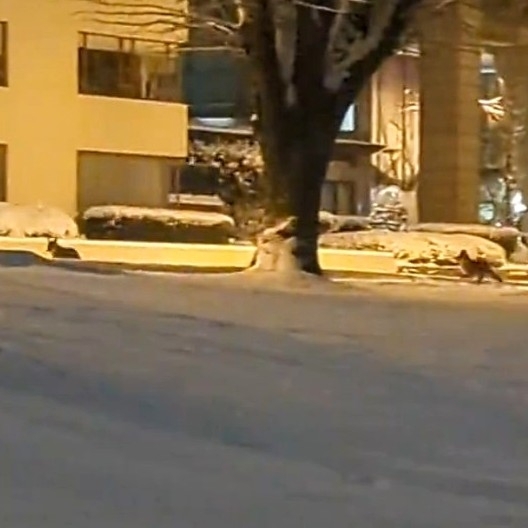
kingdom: Animalia
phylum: Chordata
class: Mammalia
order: Carnivora
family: Canidae
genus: Canis
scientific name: Canis latrans
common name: Coyote
